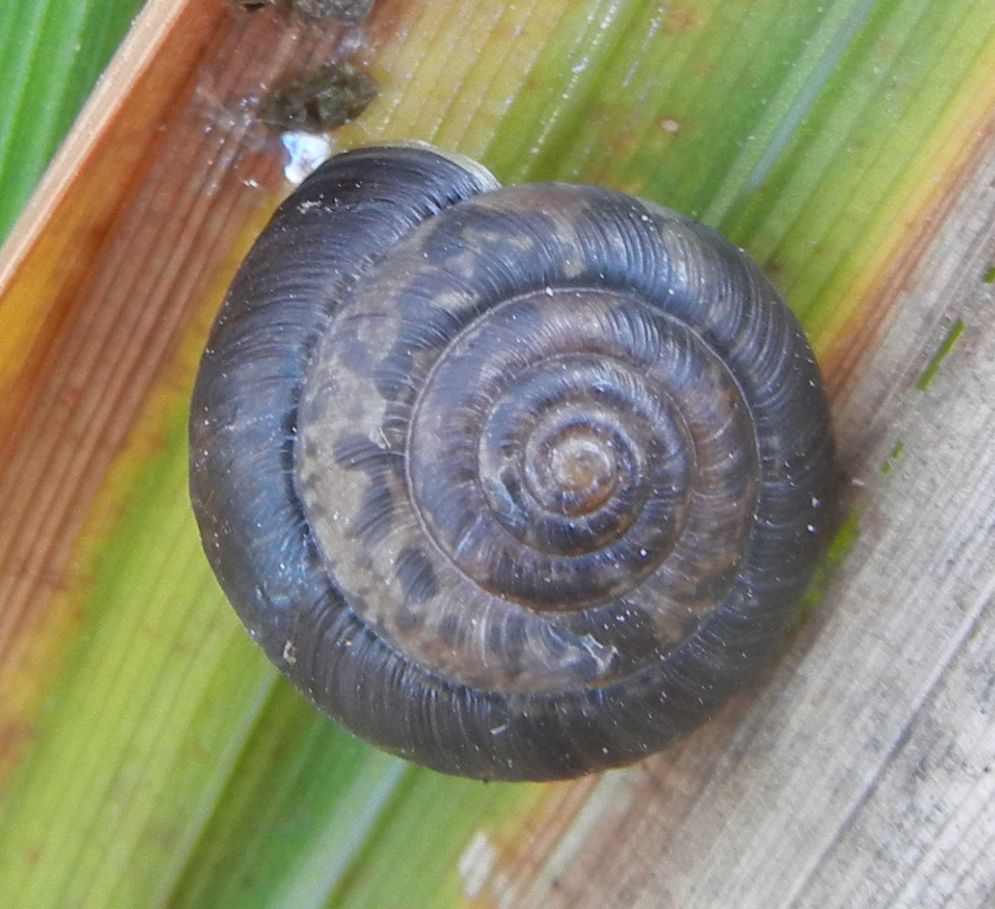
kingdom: Animalia
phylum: Mollusca
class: Gastropoda
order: Stylommatophora
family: Hygromiidae
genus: Trochulus
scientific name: Trochulus striolatus
